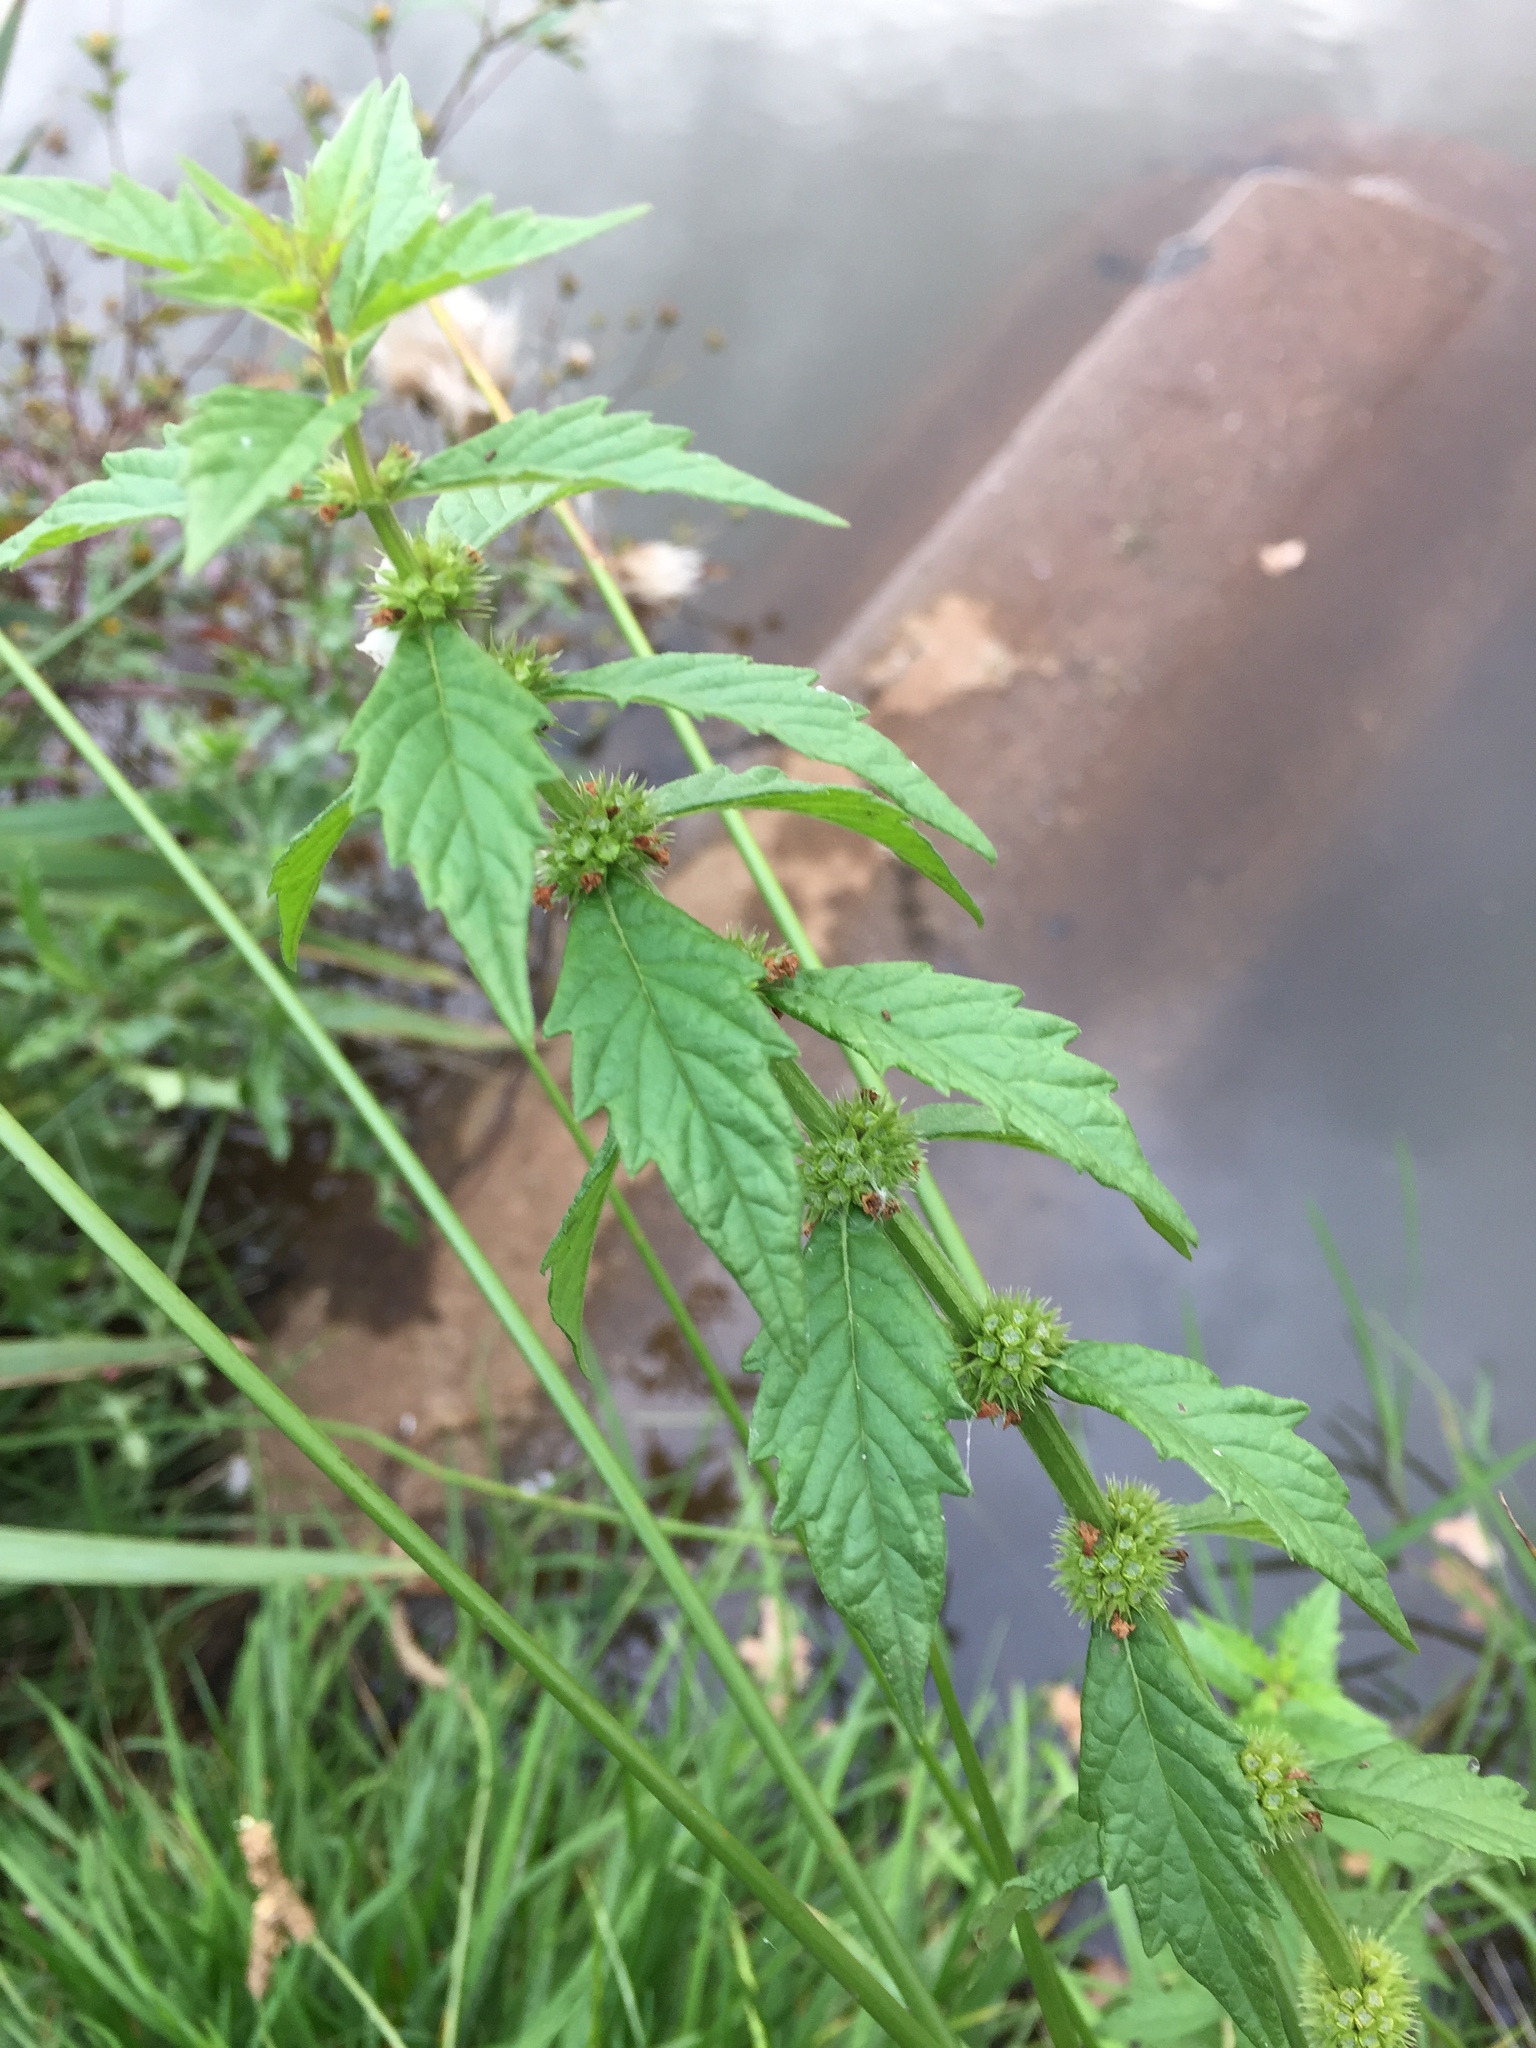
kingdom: Plantae
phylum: Tracheophyta
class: Magnoliopsida
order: Lamiales
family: Lamiaceae
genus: Lycopus
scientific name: Lycopus europaeus
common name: European bugleweed
